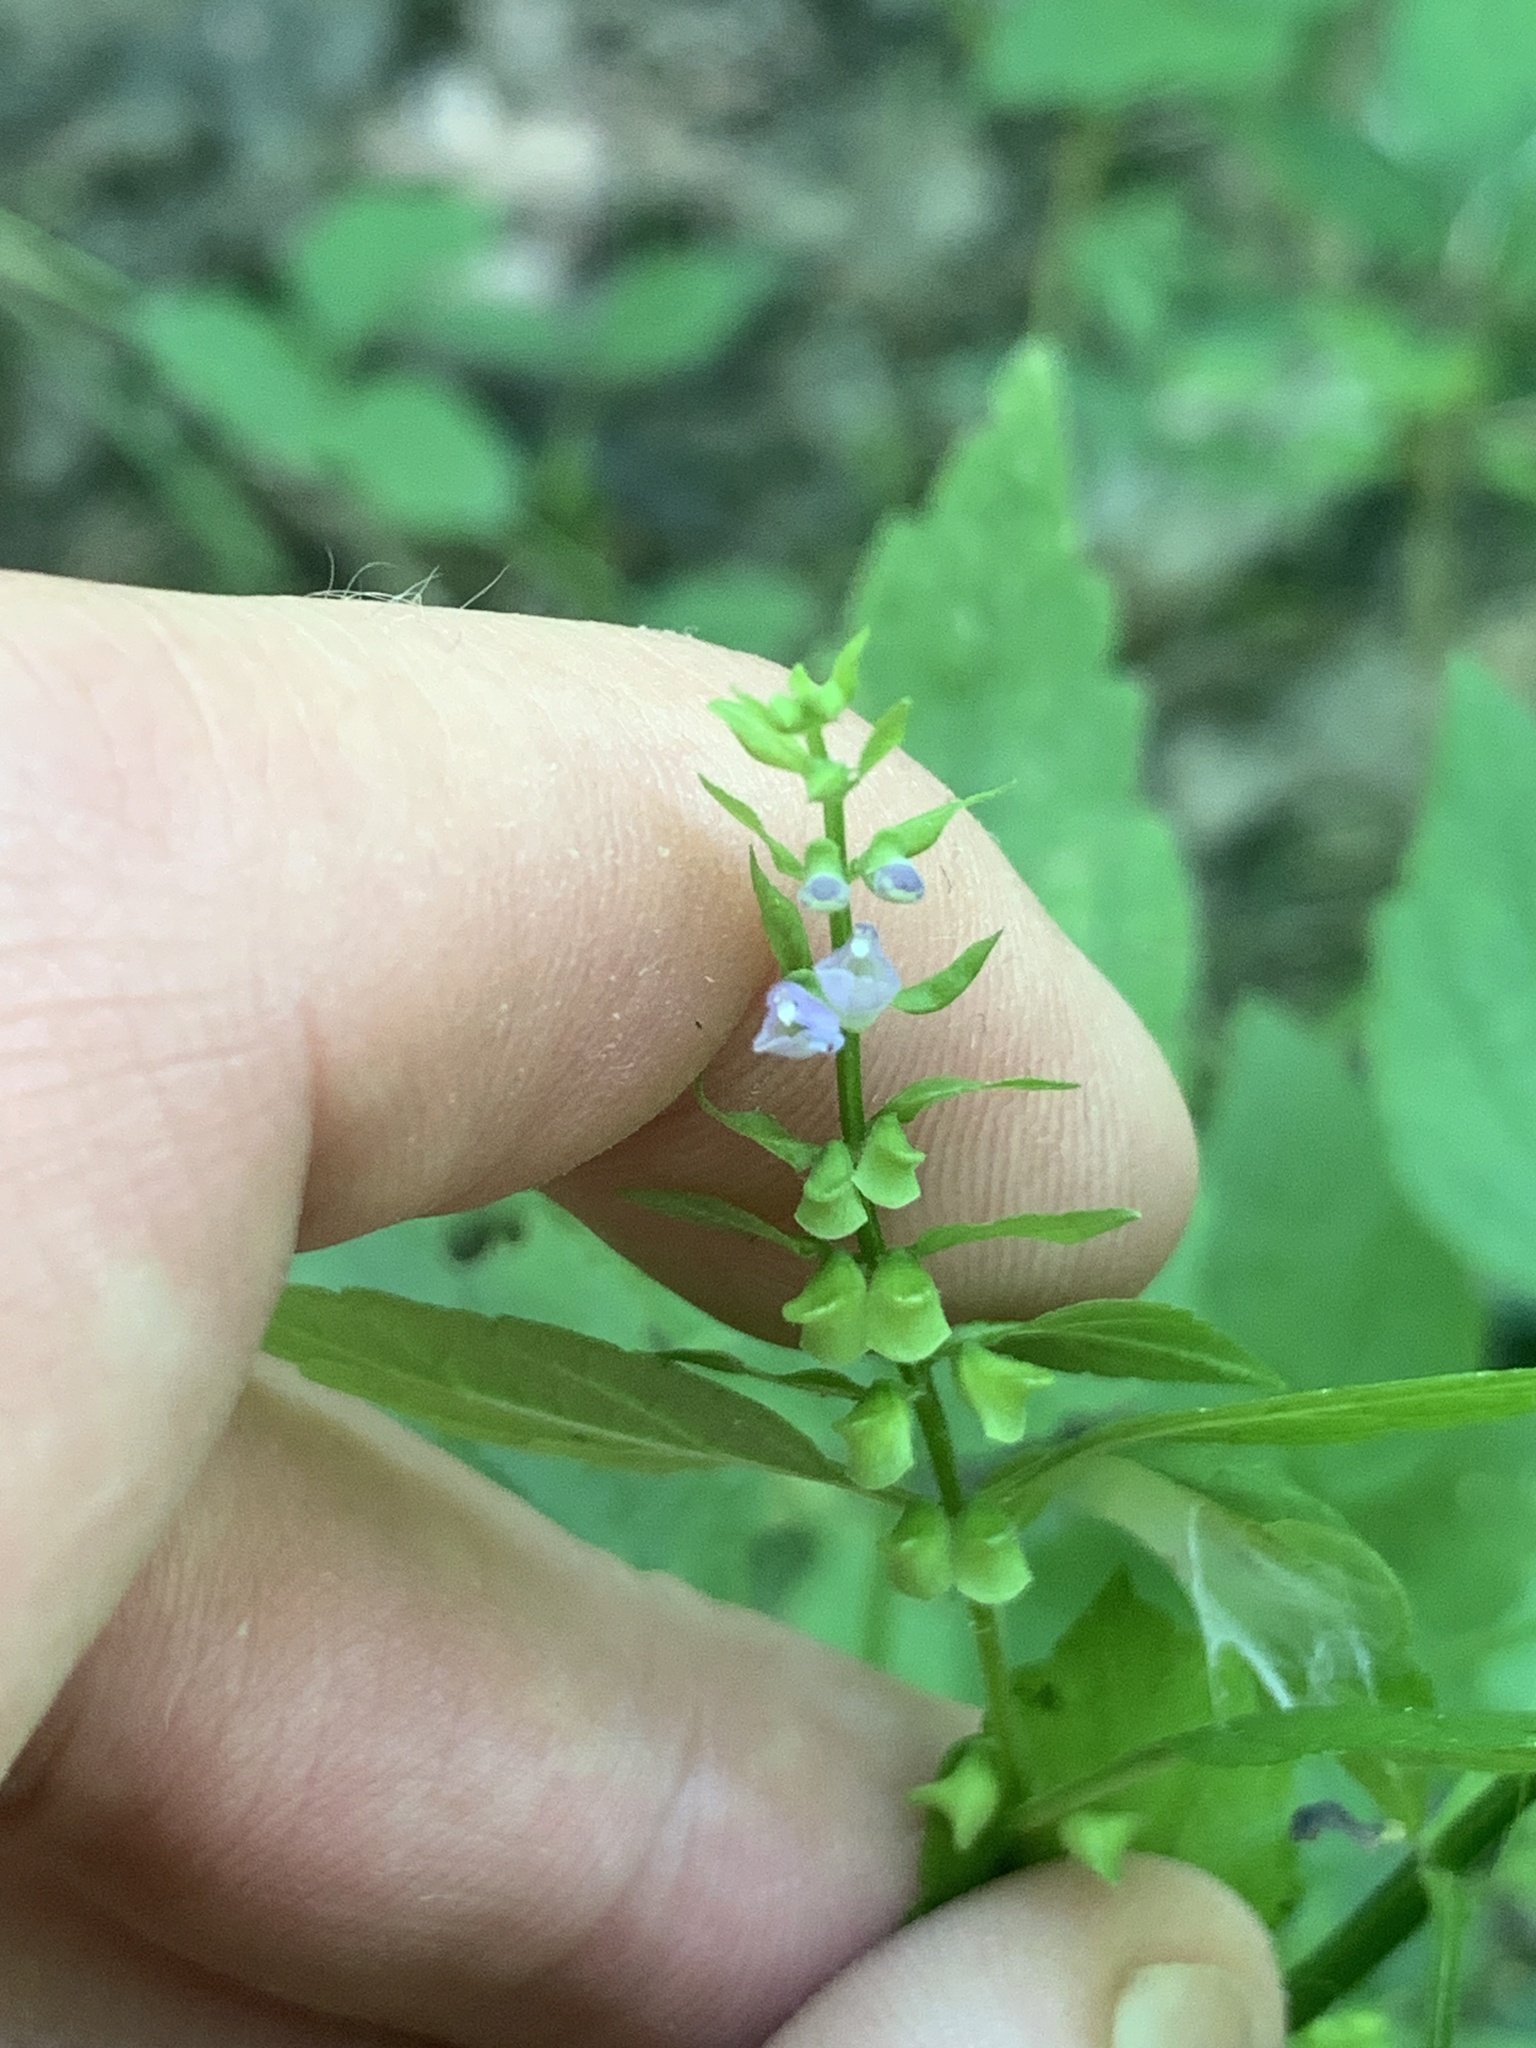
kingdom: Plantae
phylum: Tracheophyta
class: Magnoliopsida
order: Lamiales
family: Lamiaceae
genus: Scutellaria
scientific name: Scutellaria lateriflora
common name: Blue skullcap
